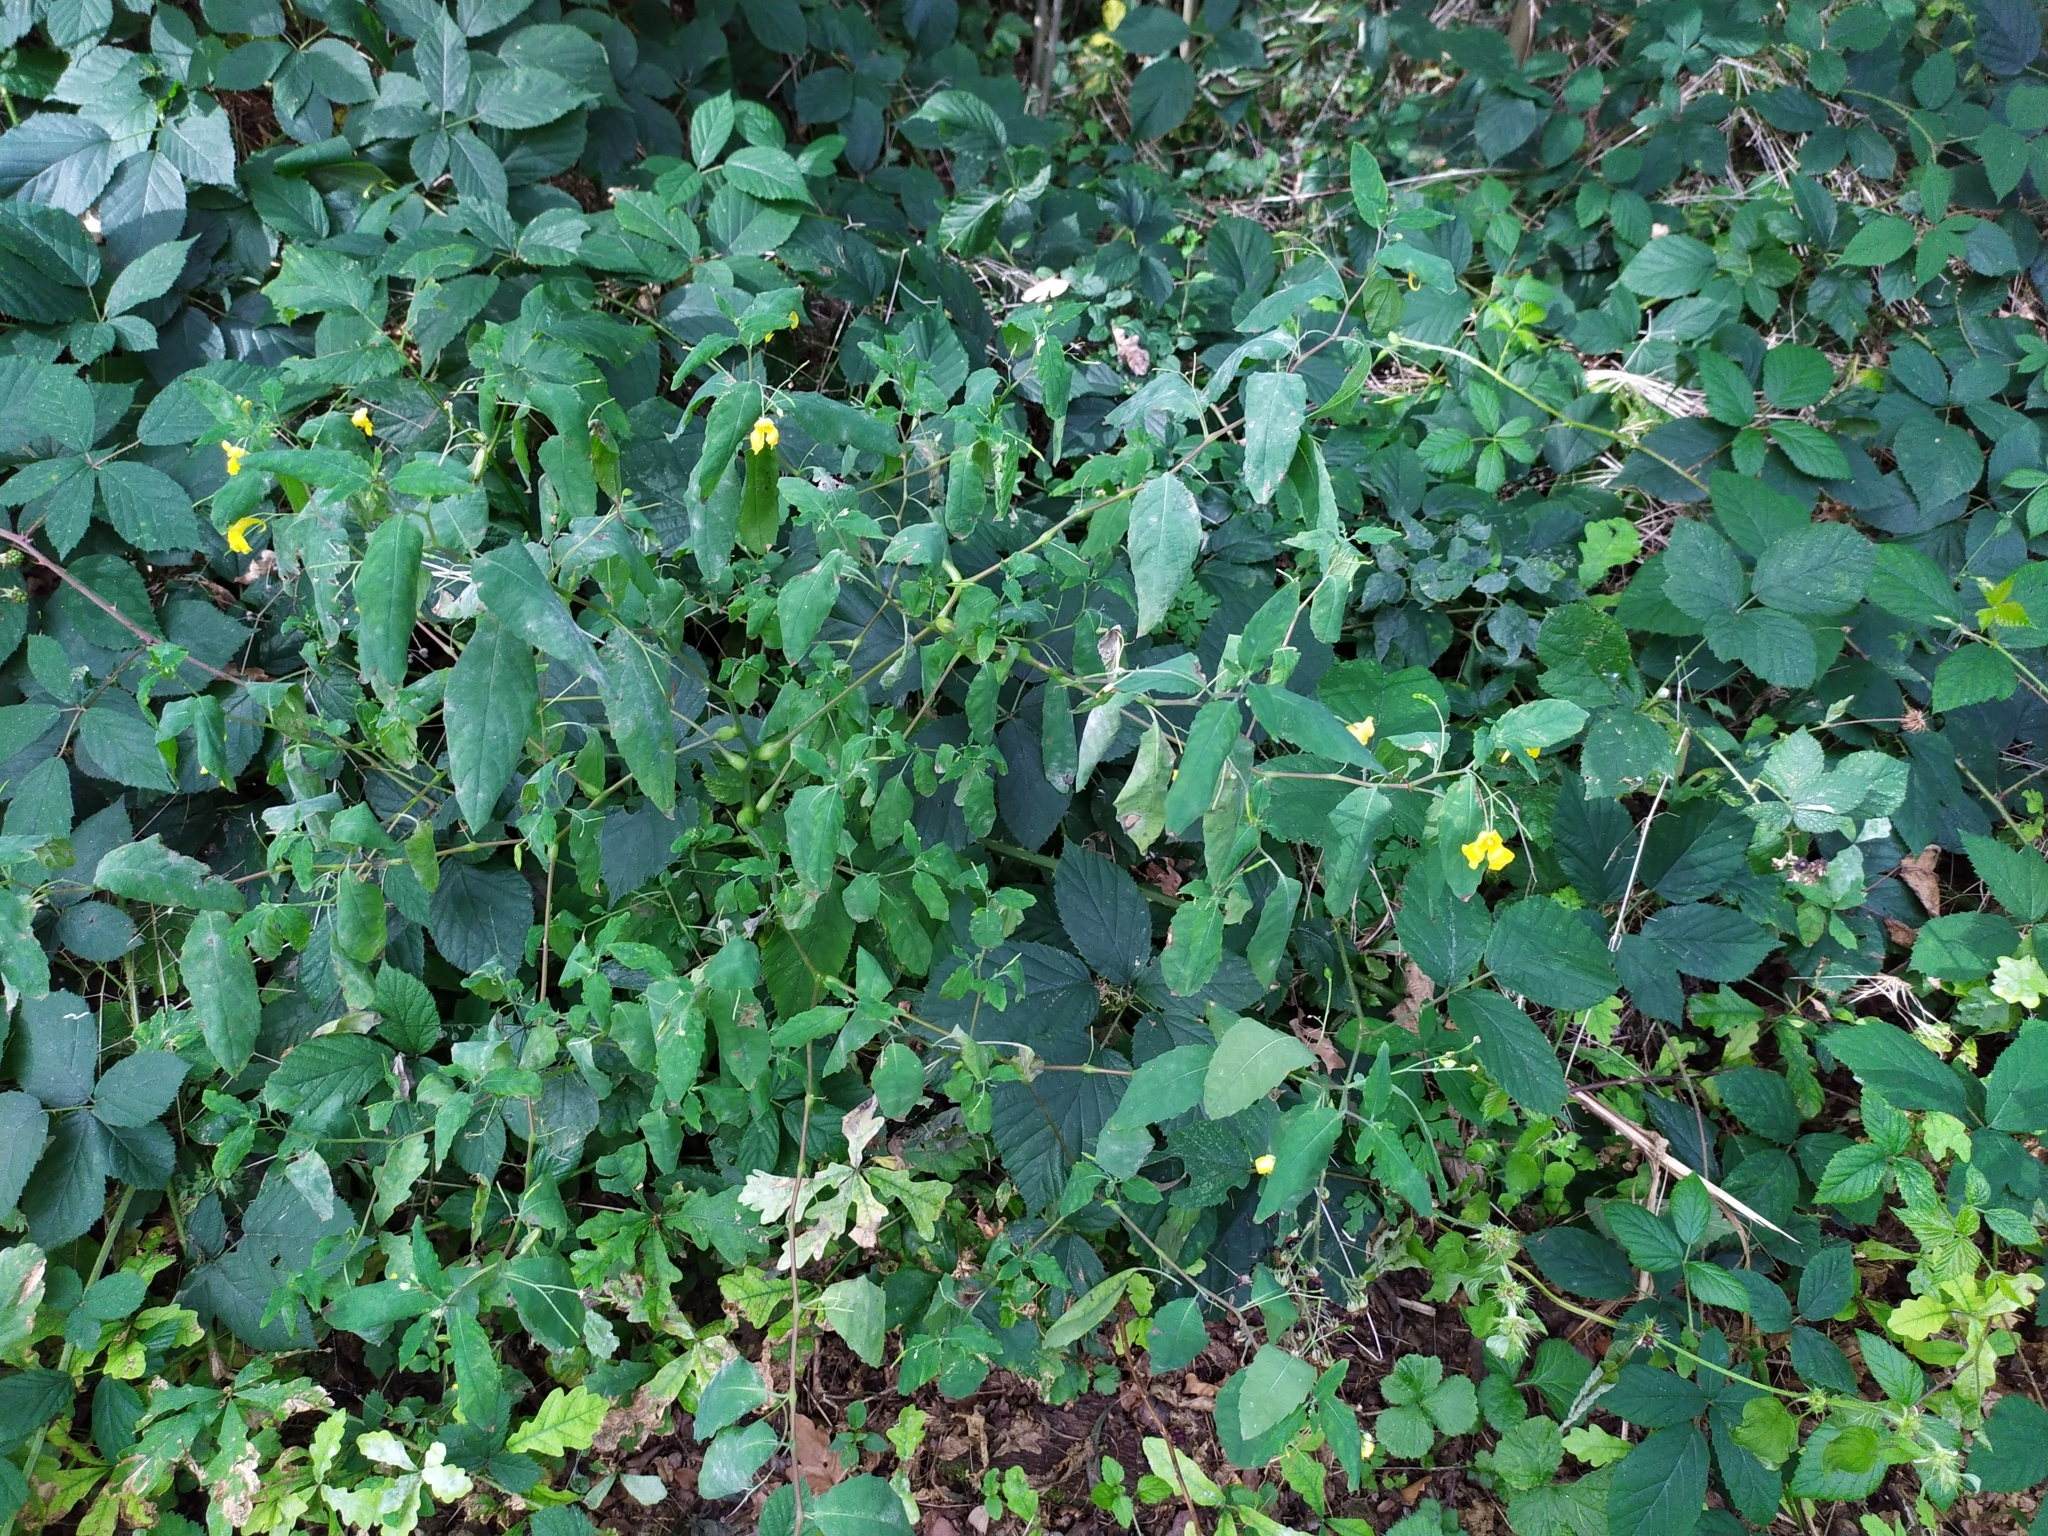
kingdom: Plantae
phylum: Tracheophyta
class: Magnoliopsida
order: Ericales
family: Balsaminaceae
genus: Impatiens
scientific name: Impatiens noli-tangere
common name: Touch-me-not balsam
